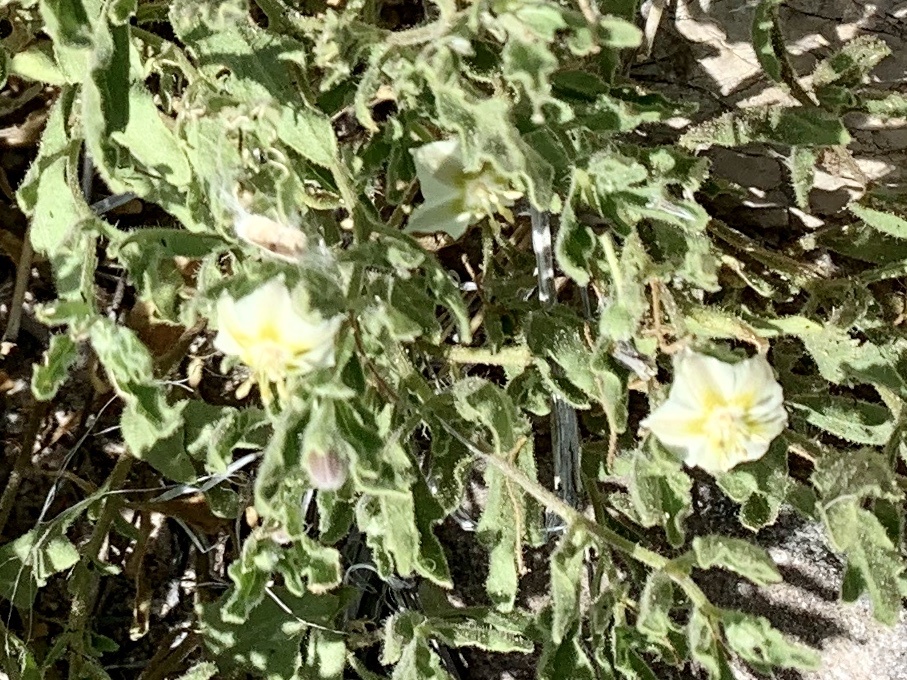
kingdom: Plantae
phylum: Tracheophyta
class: Magnoliopsida
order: Solanales
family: Solanaceae
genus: Chamaesaracha
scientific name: Chamaesaracha sordida
